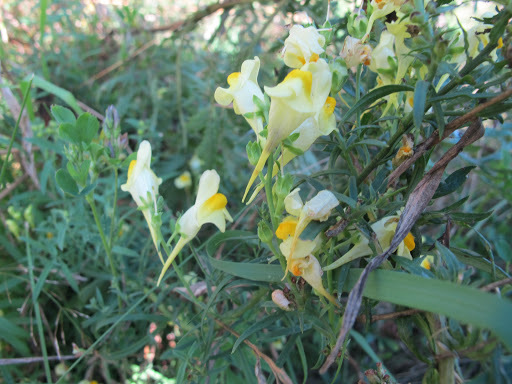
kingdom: Plantae
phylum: Tracheophyta
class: Magnoliopsida
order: Lamiales
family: Plantaginaceae
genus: Linaria
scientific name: Linaria vulgaris
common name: Butter and eggs
